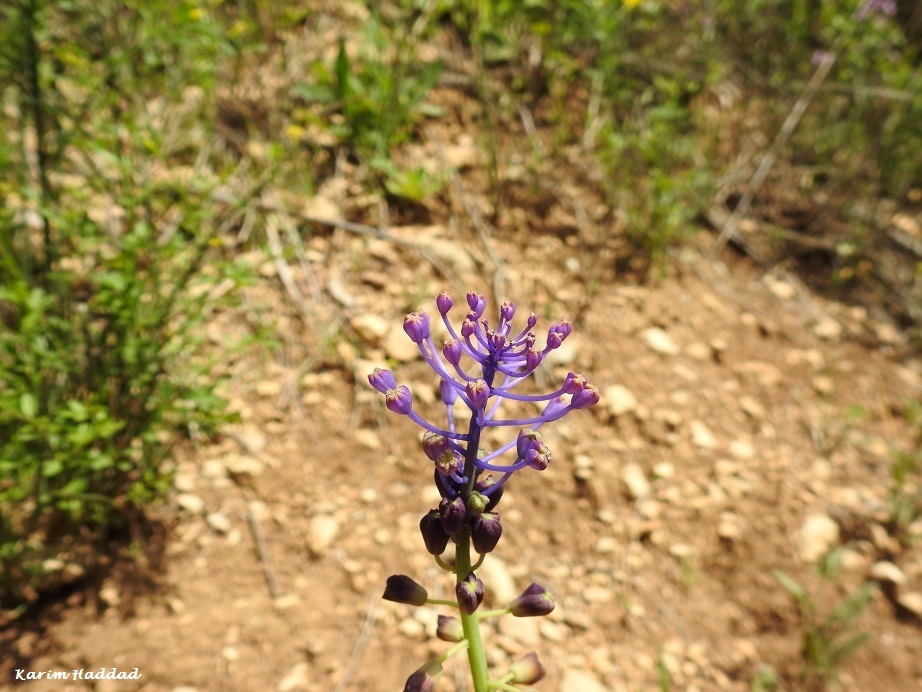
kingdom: Plantae
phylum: Tracheophyta
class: Liliopsida
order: Asparagales
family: Asparagaceae
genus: Muscari
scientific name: Muscari comosum
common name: Tassel hyacinth
